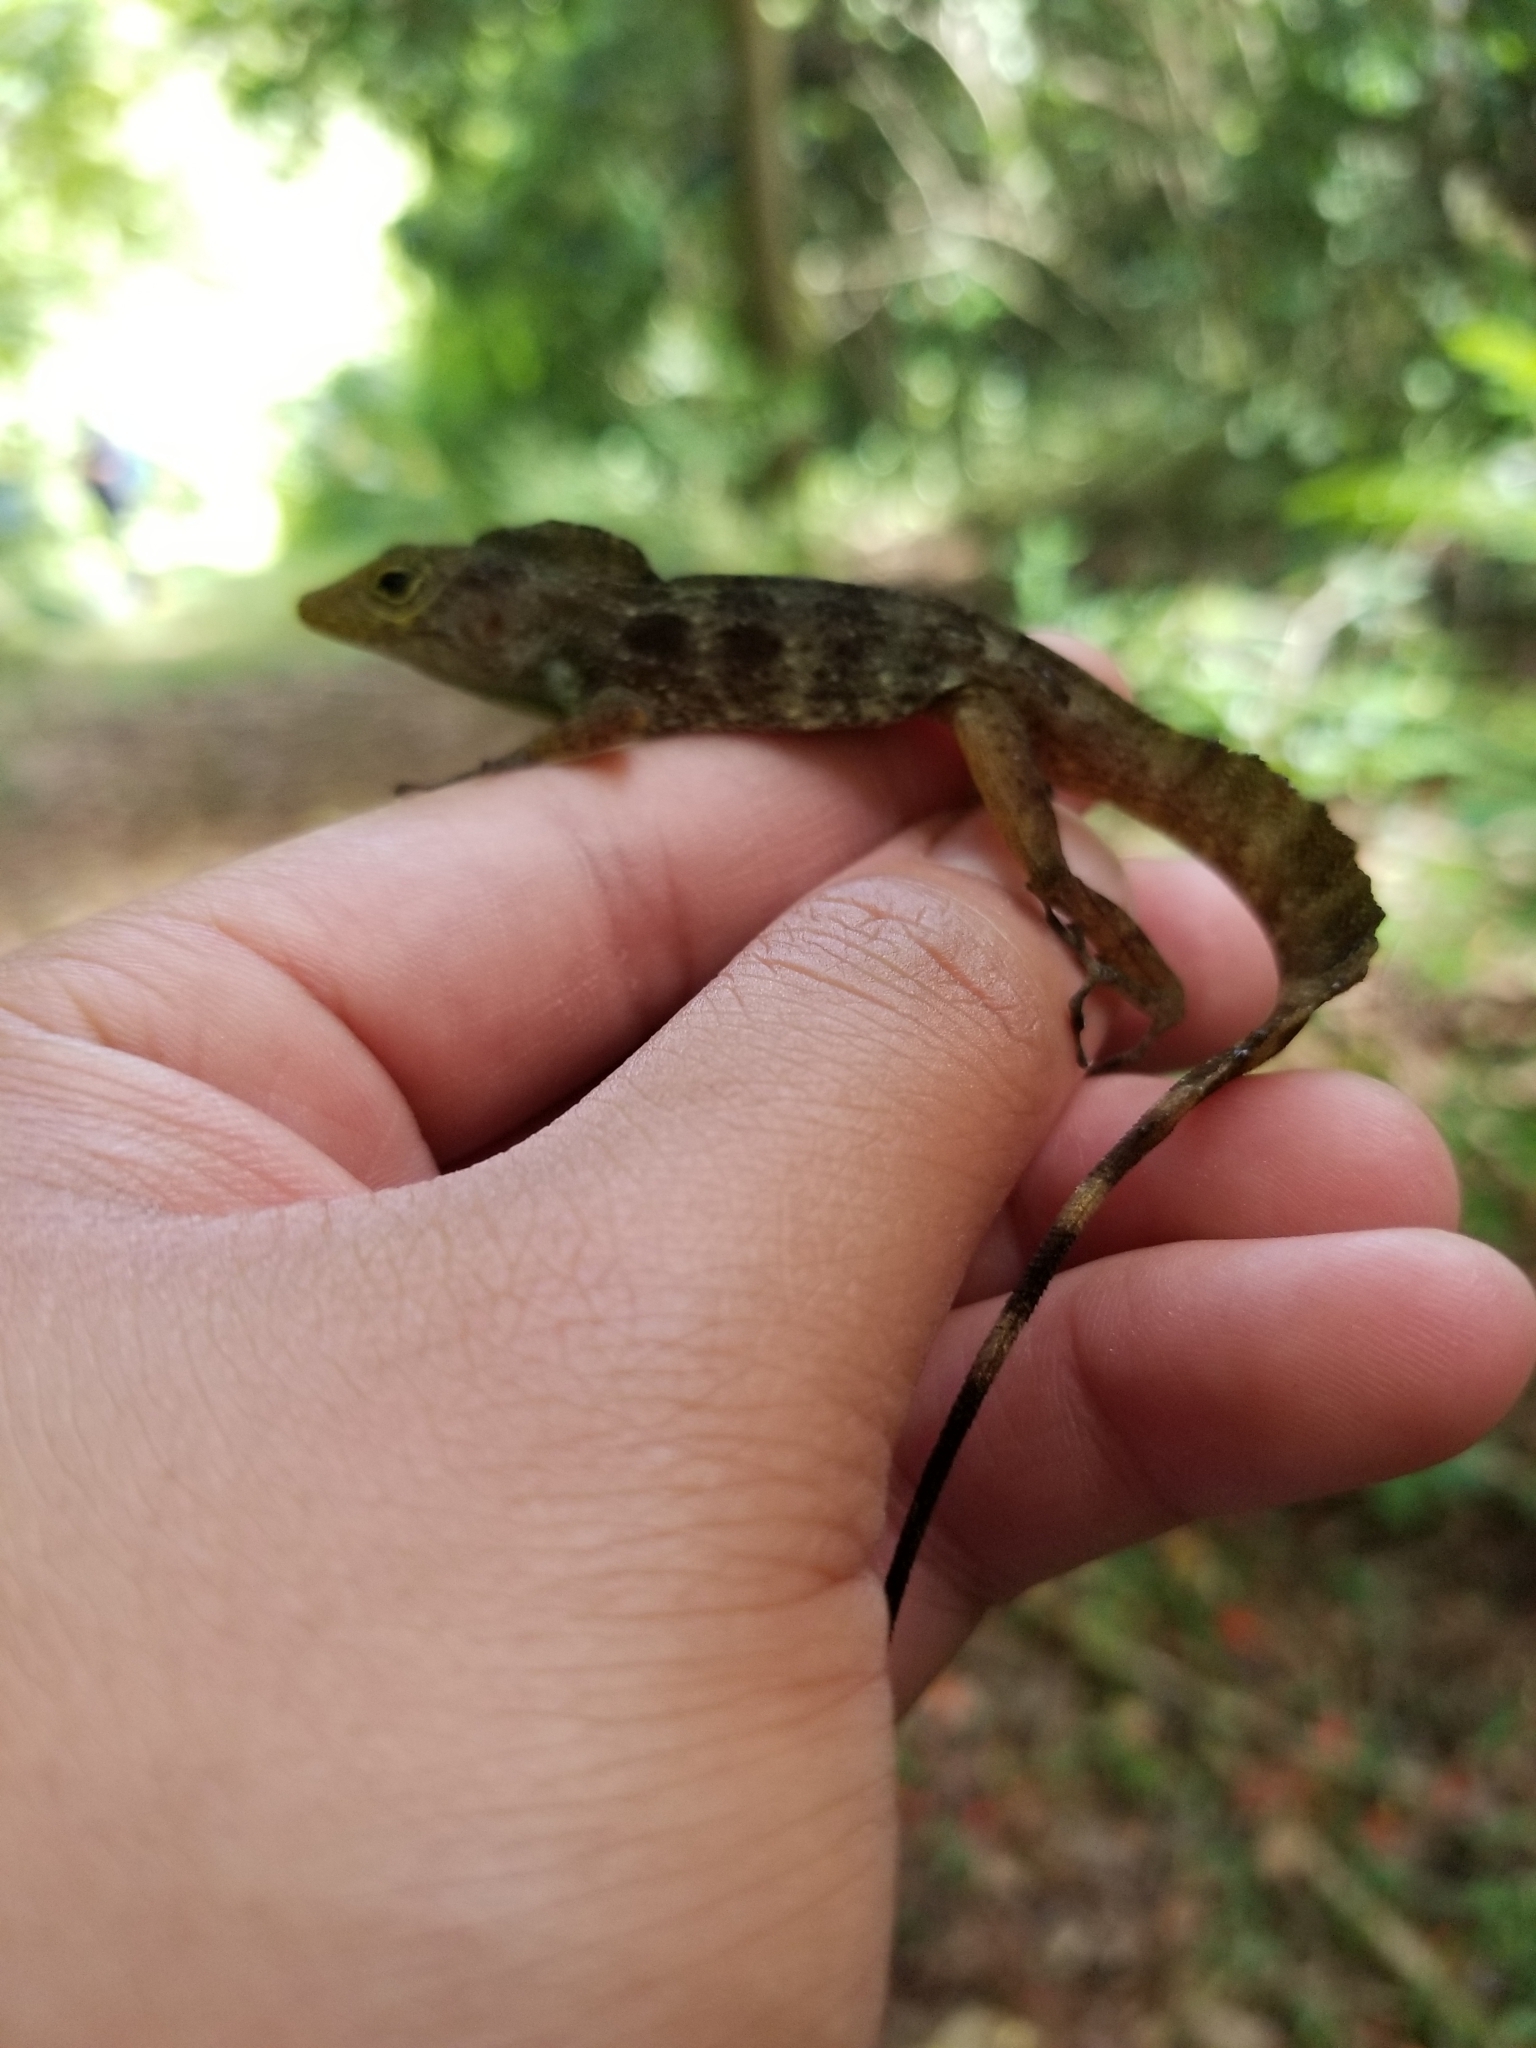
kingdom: Animalia
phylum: Chordata
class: Squamata
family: Dactyloidae
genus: Anolis
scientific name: Anolis gundlachi
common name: Gundlach’s anole
